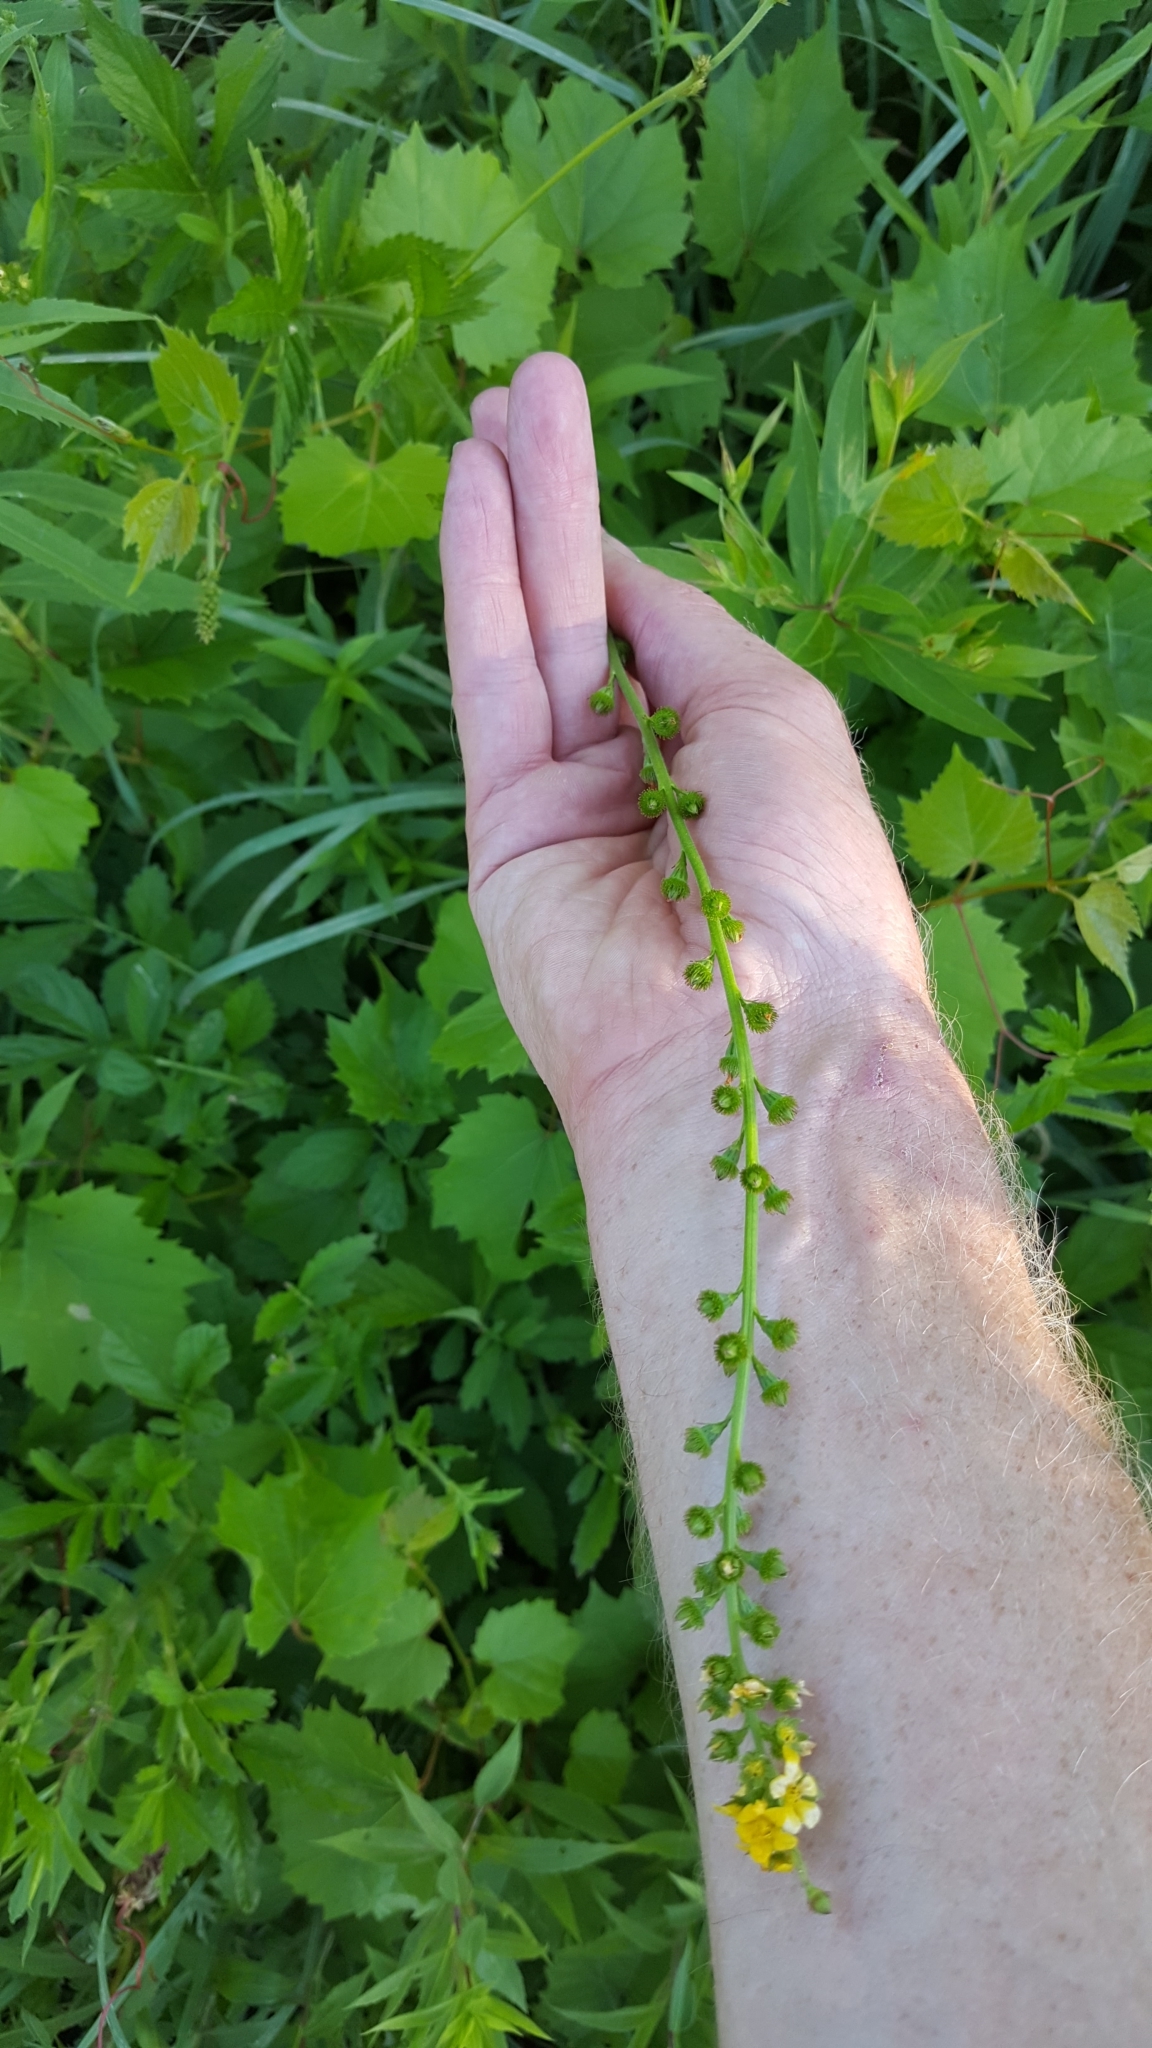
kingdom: Plantae
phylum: Tracheophyta
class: Magnoliopsida
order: Rosales
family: Rosaceae
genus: Agrimonia
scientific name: Agrimonia gryposepala
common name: Common agrimony
